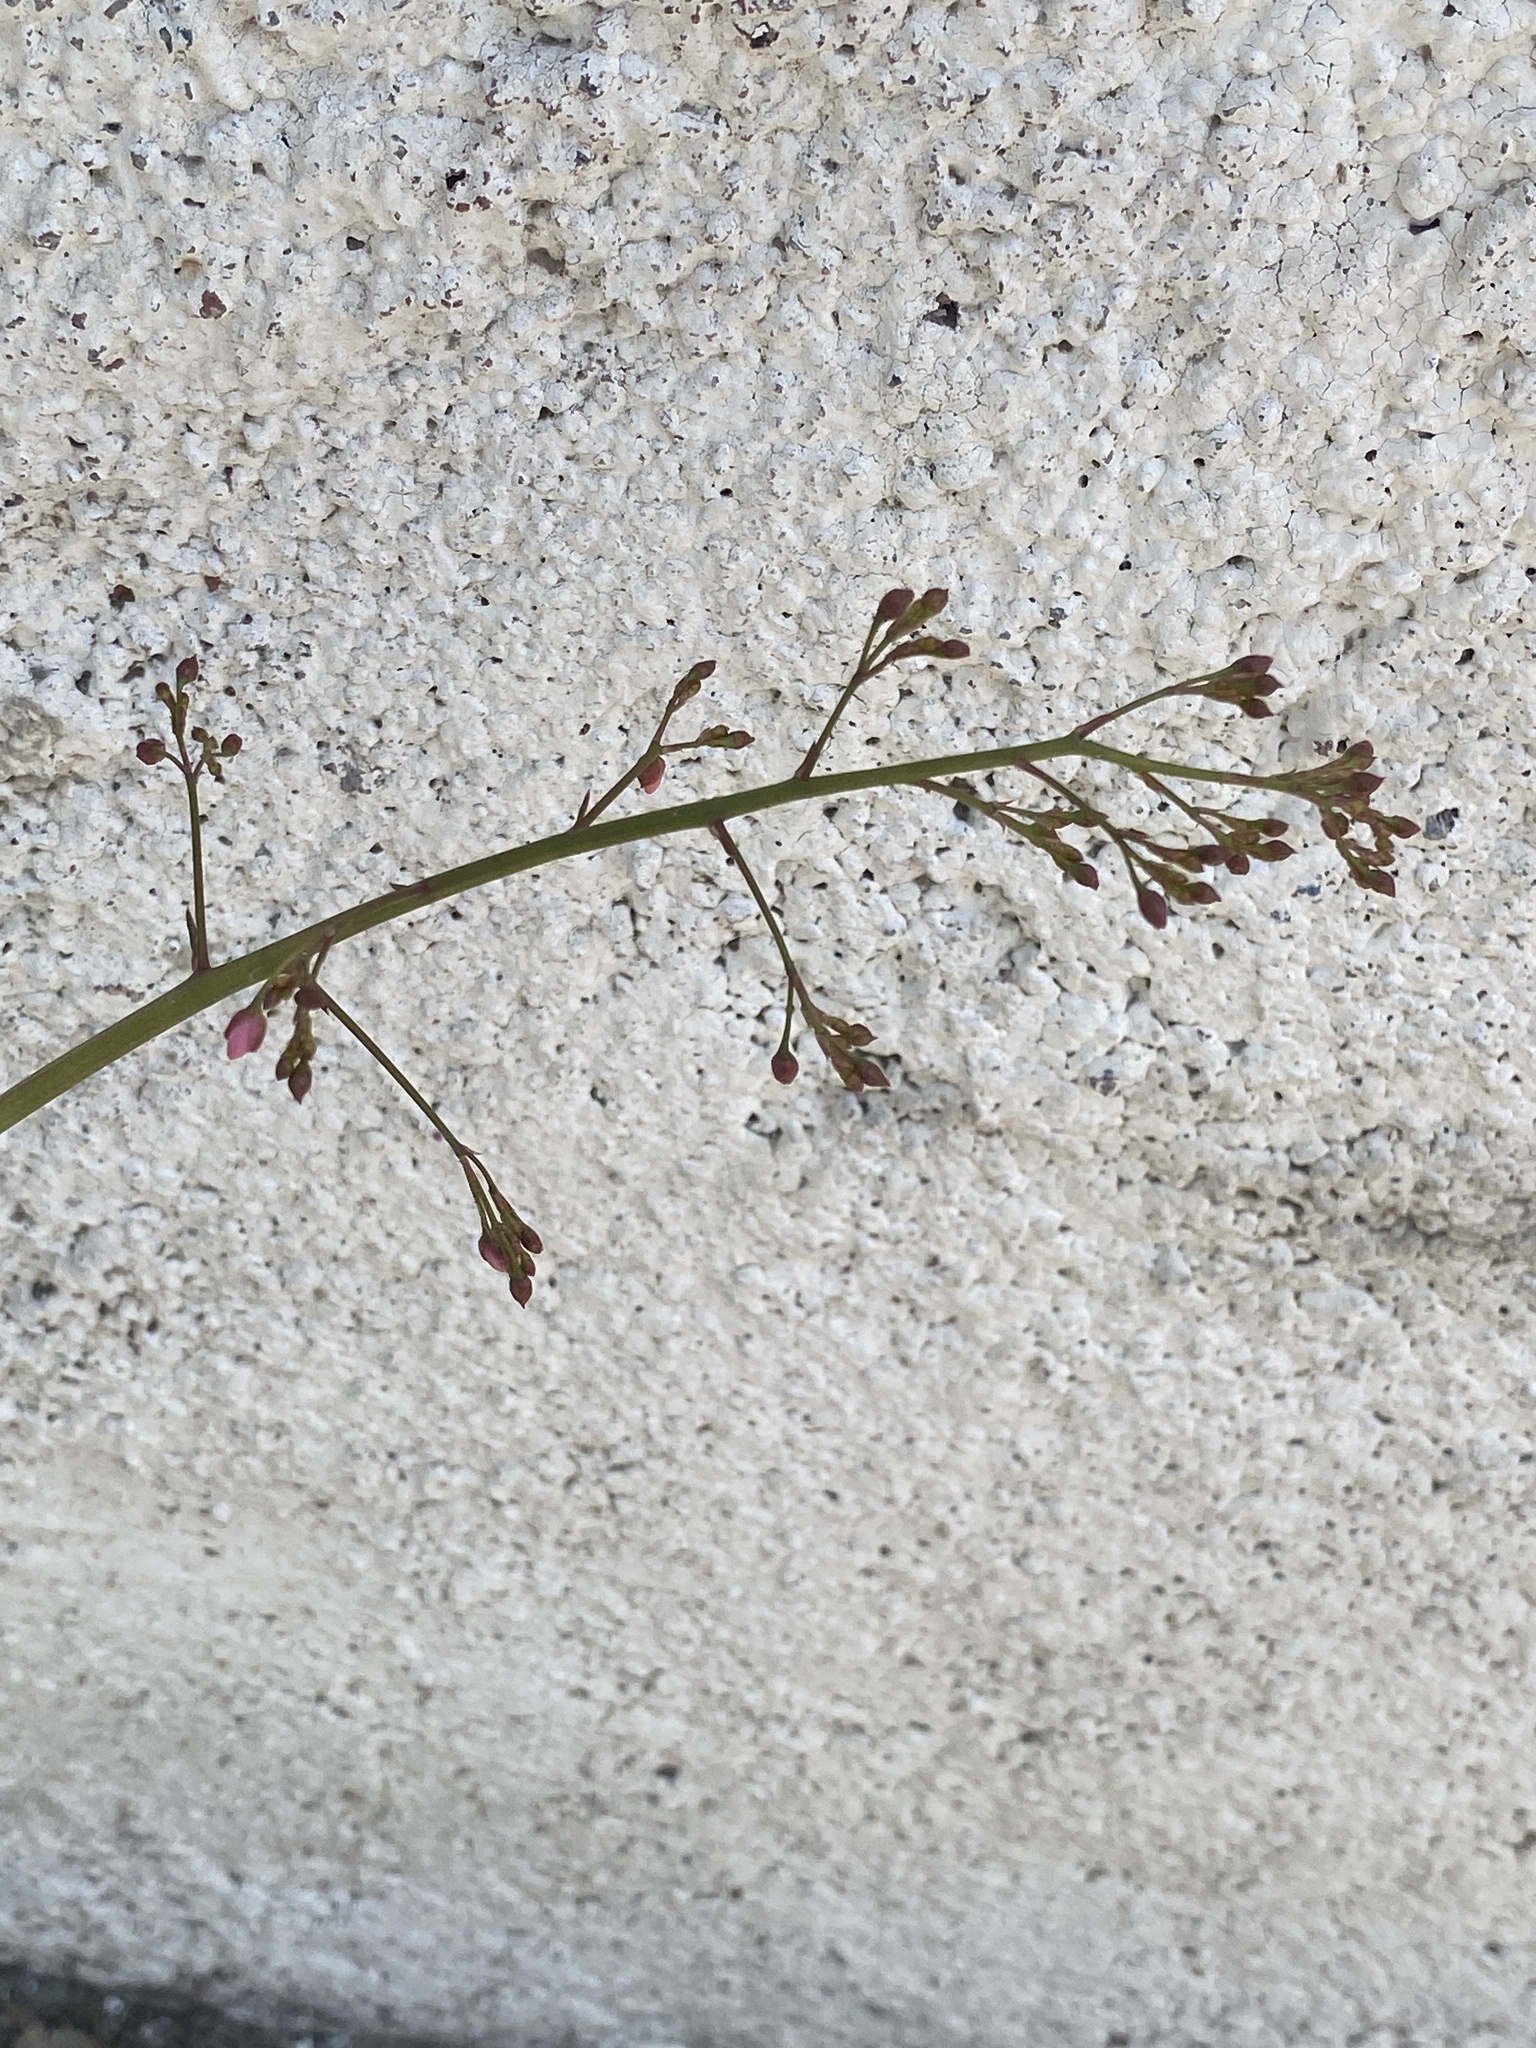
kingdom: Plantae
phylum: Tracheophyta
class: Magnoliopsida
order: Caryophyllales
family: Talinaceae
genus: Talinum
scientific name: Talinum paniculatum
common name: Jewels of opar
